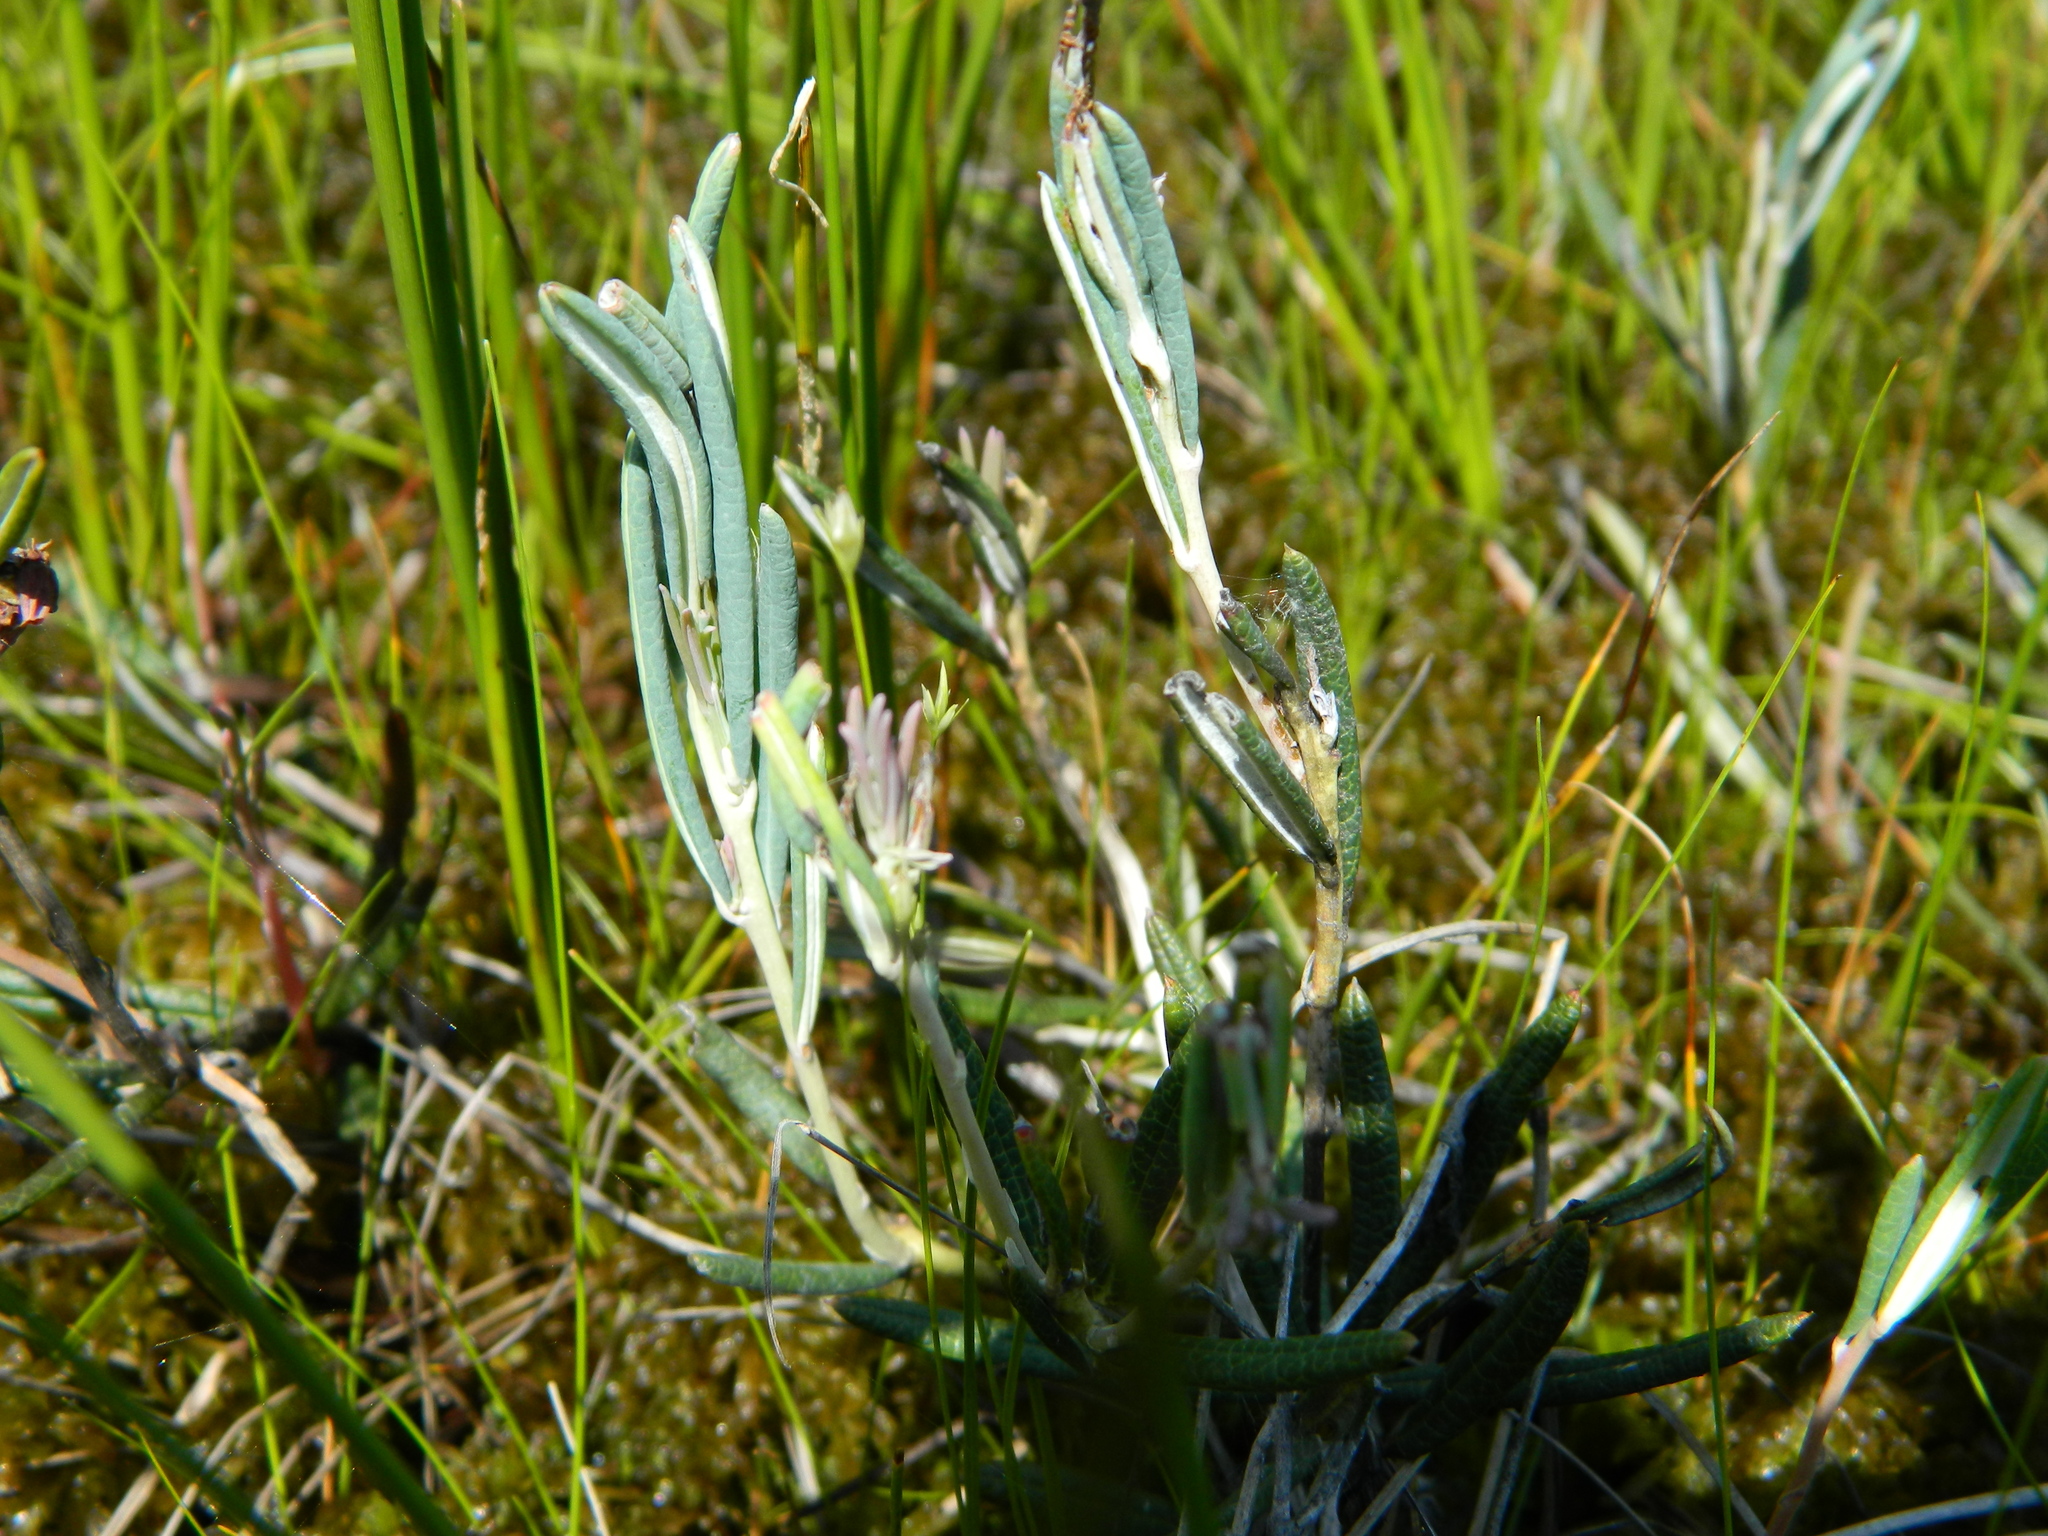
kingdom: Plantae
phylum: Tracheophyta
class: Magnoliopsida
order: Ericales
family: Ericaceae
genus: Andromeda
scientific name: Andromeda polifolia
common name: Bog-rosemary
